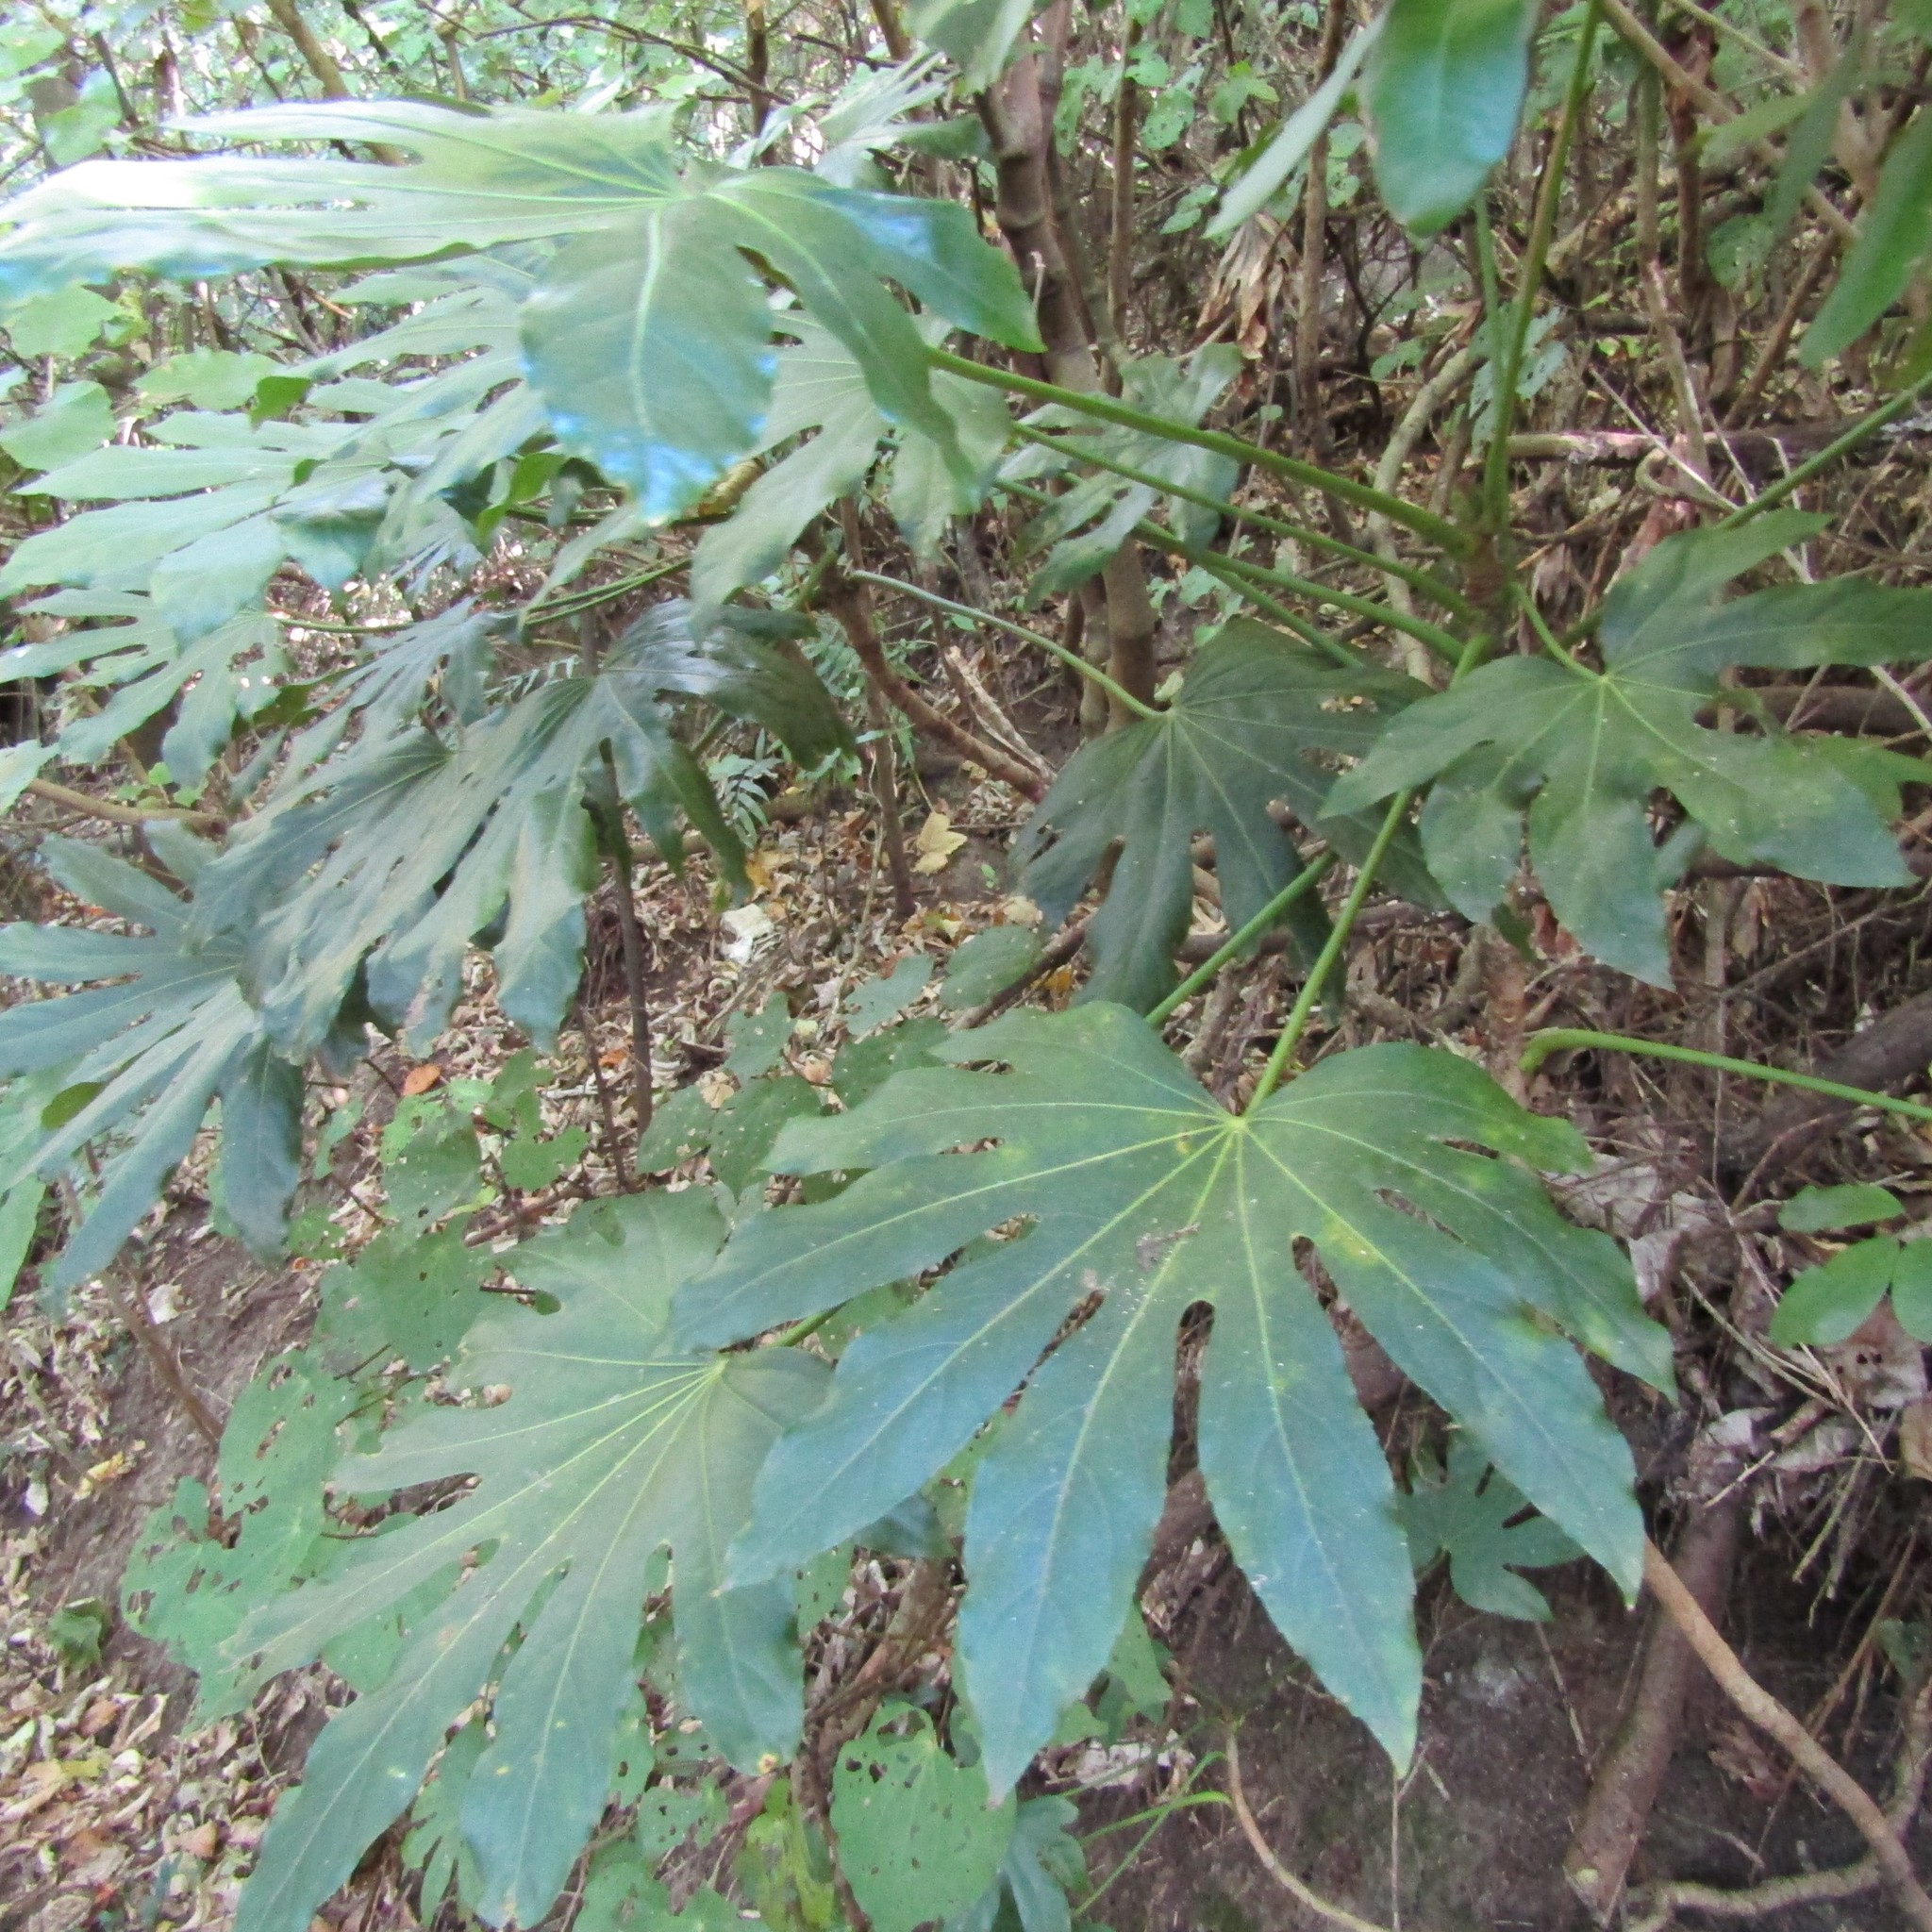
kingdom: Plantae
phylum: Tracheophyta
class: Magnoliopsida
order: Apiales
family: Araliaceae
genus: Fatsia
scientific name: Fatsia japonica
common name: Fatsia
